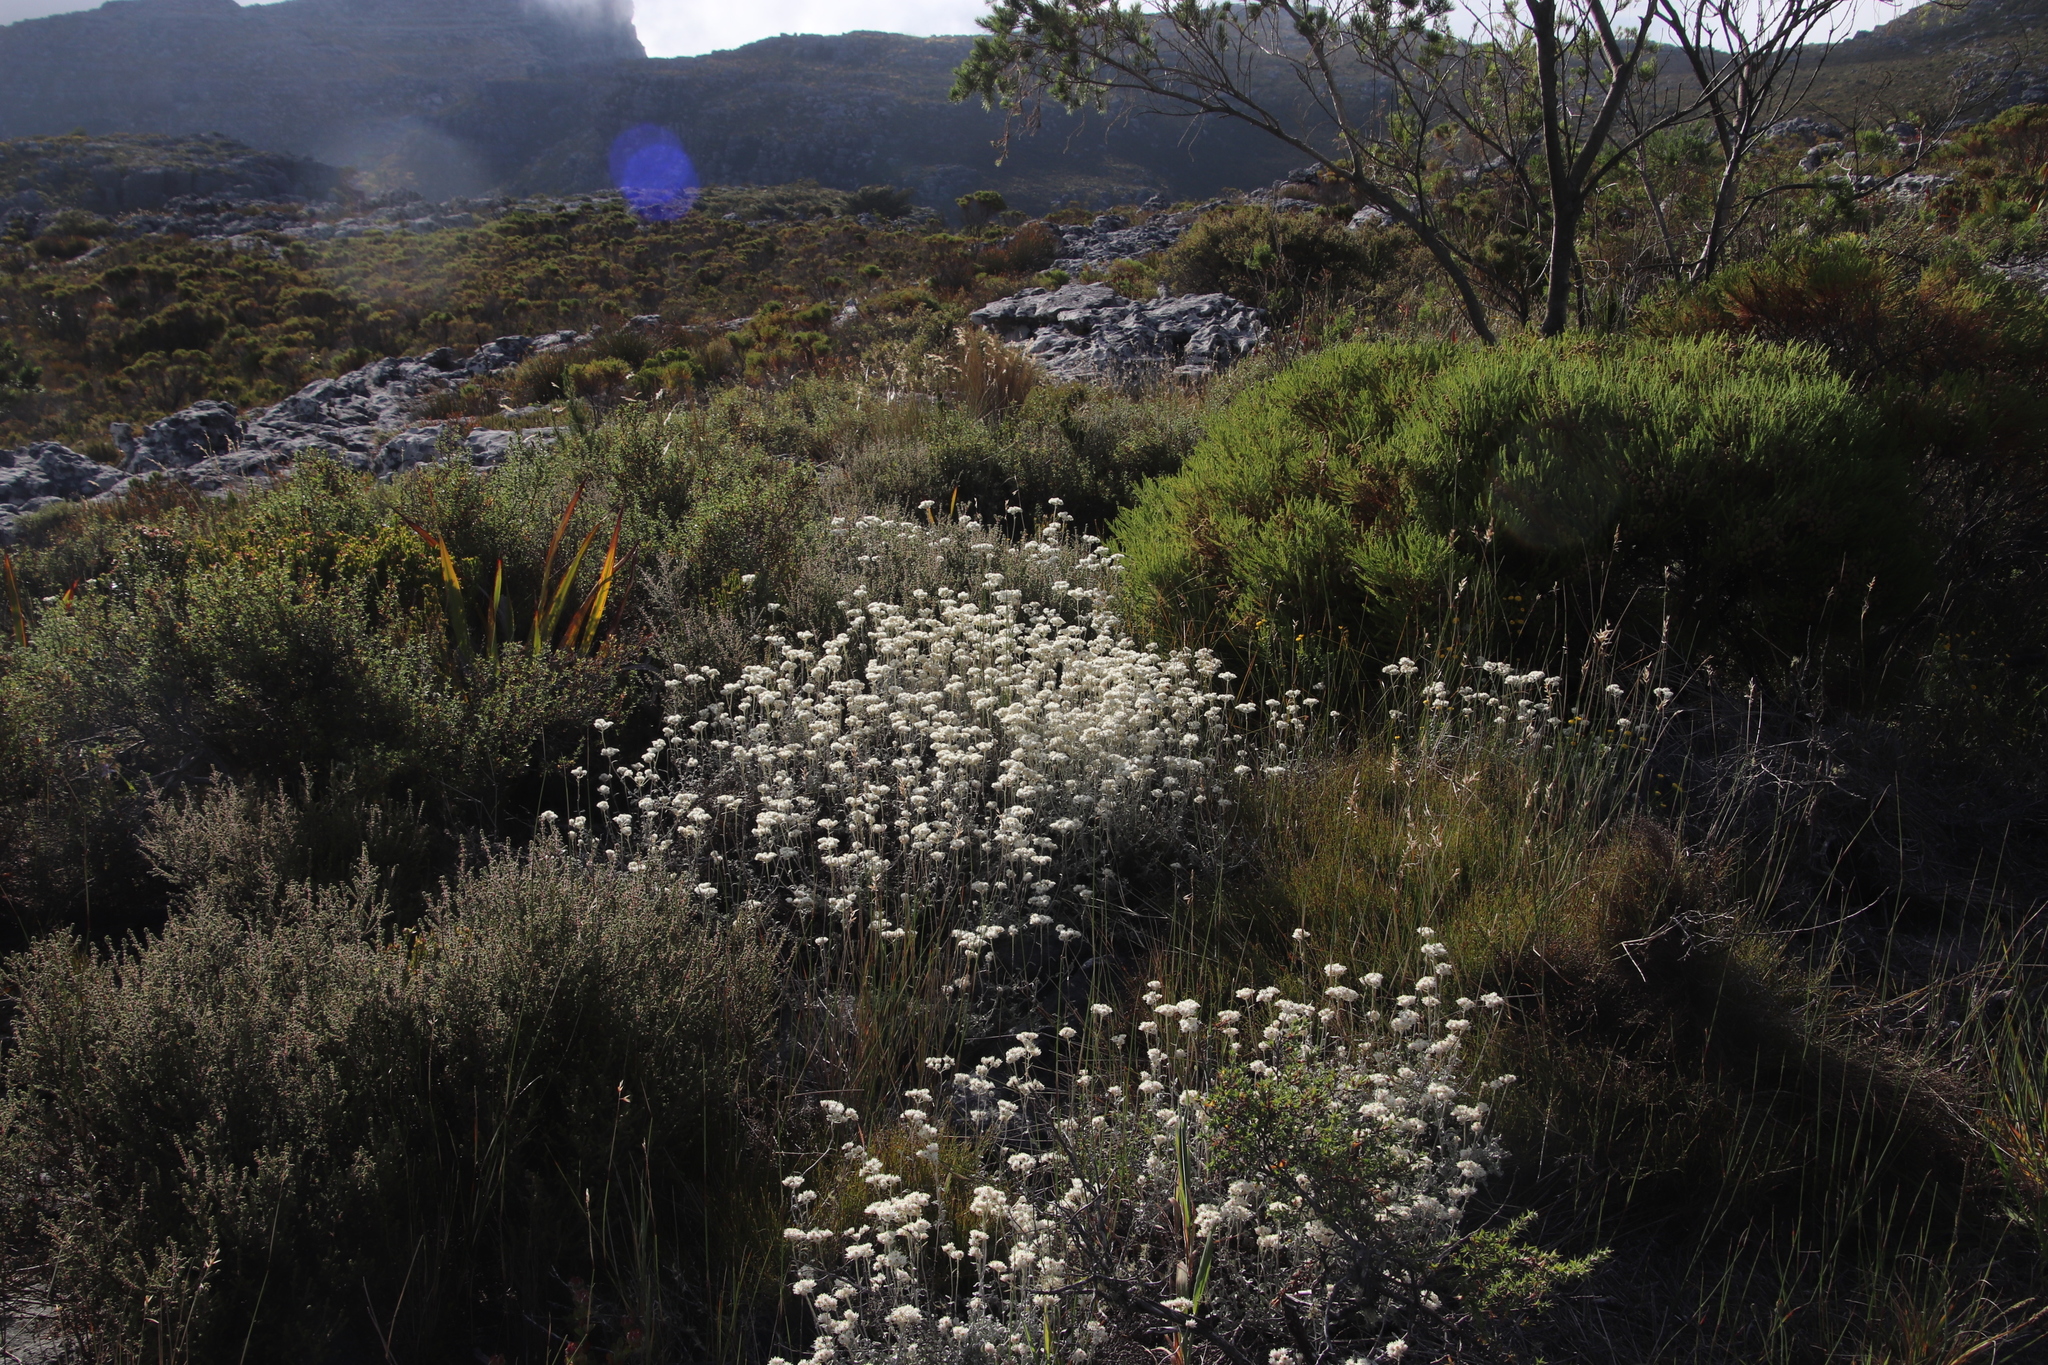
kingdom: Plantae
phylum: Tracheophyta
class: Magnoliopsida
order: Asterales
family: Asteraceae
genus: Helichrysum
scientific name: Helichrysum pandurifolium
